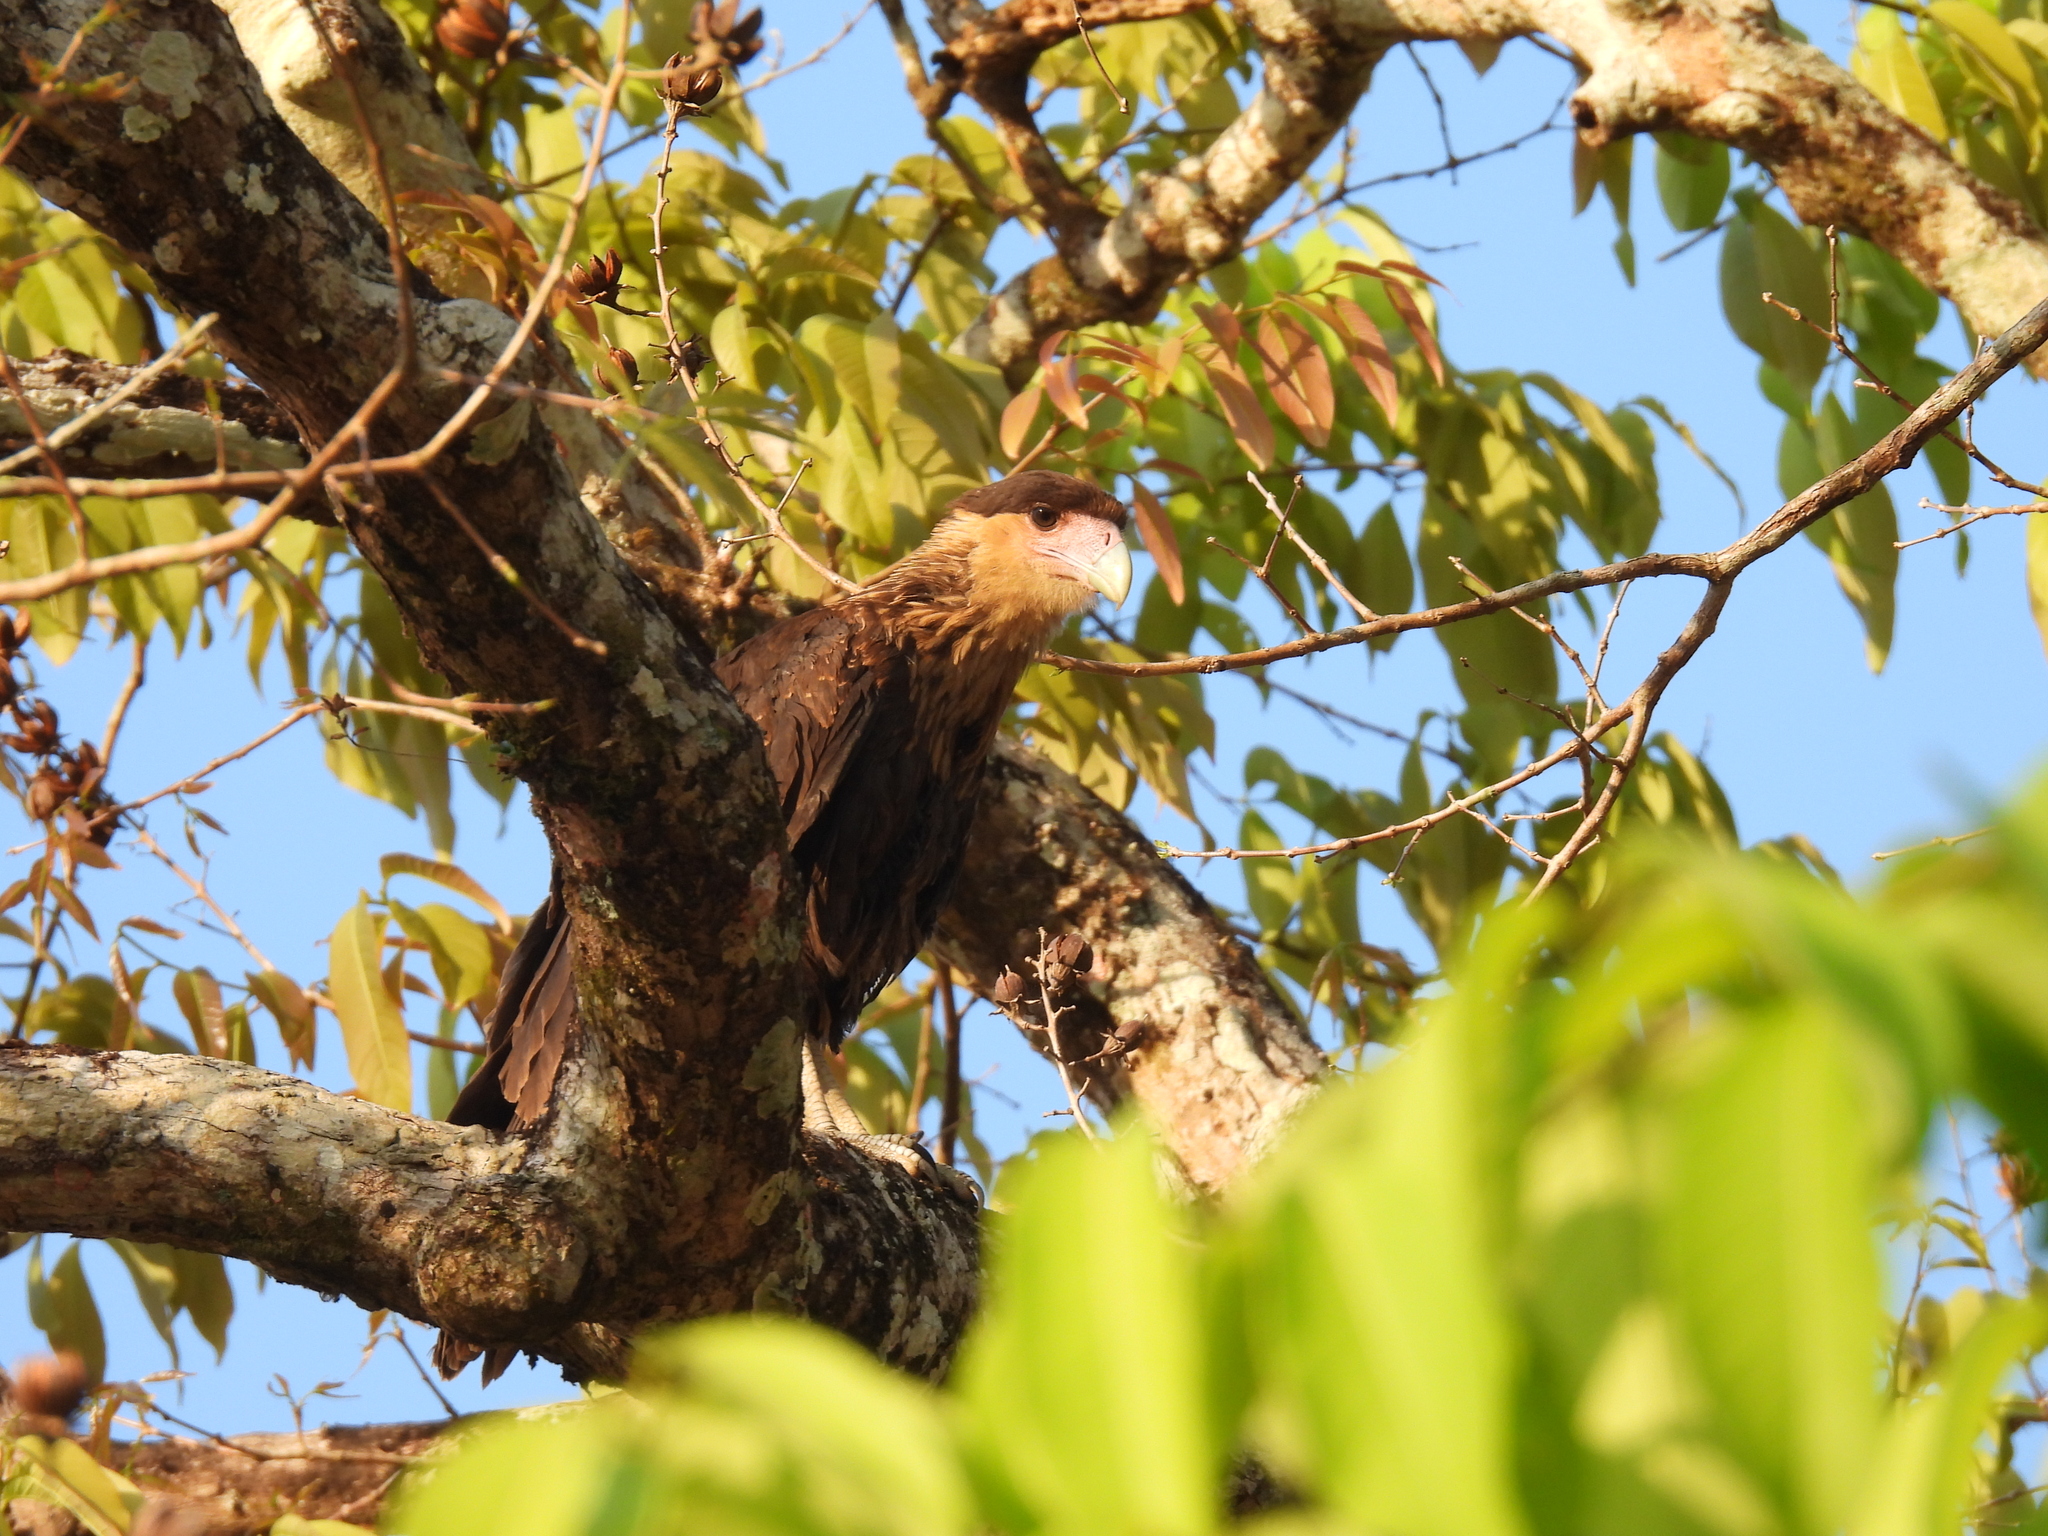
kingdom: Animalia
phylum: Chordata
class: Aves
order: Falconiformes
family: Falconidae
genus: Caracara
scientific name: Caracara plancus
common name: Southern caracara
